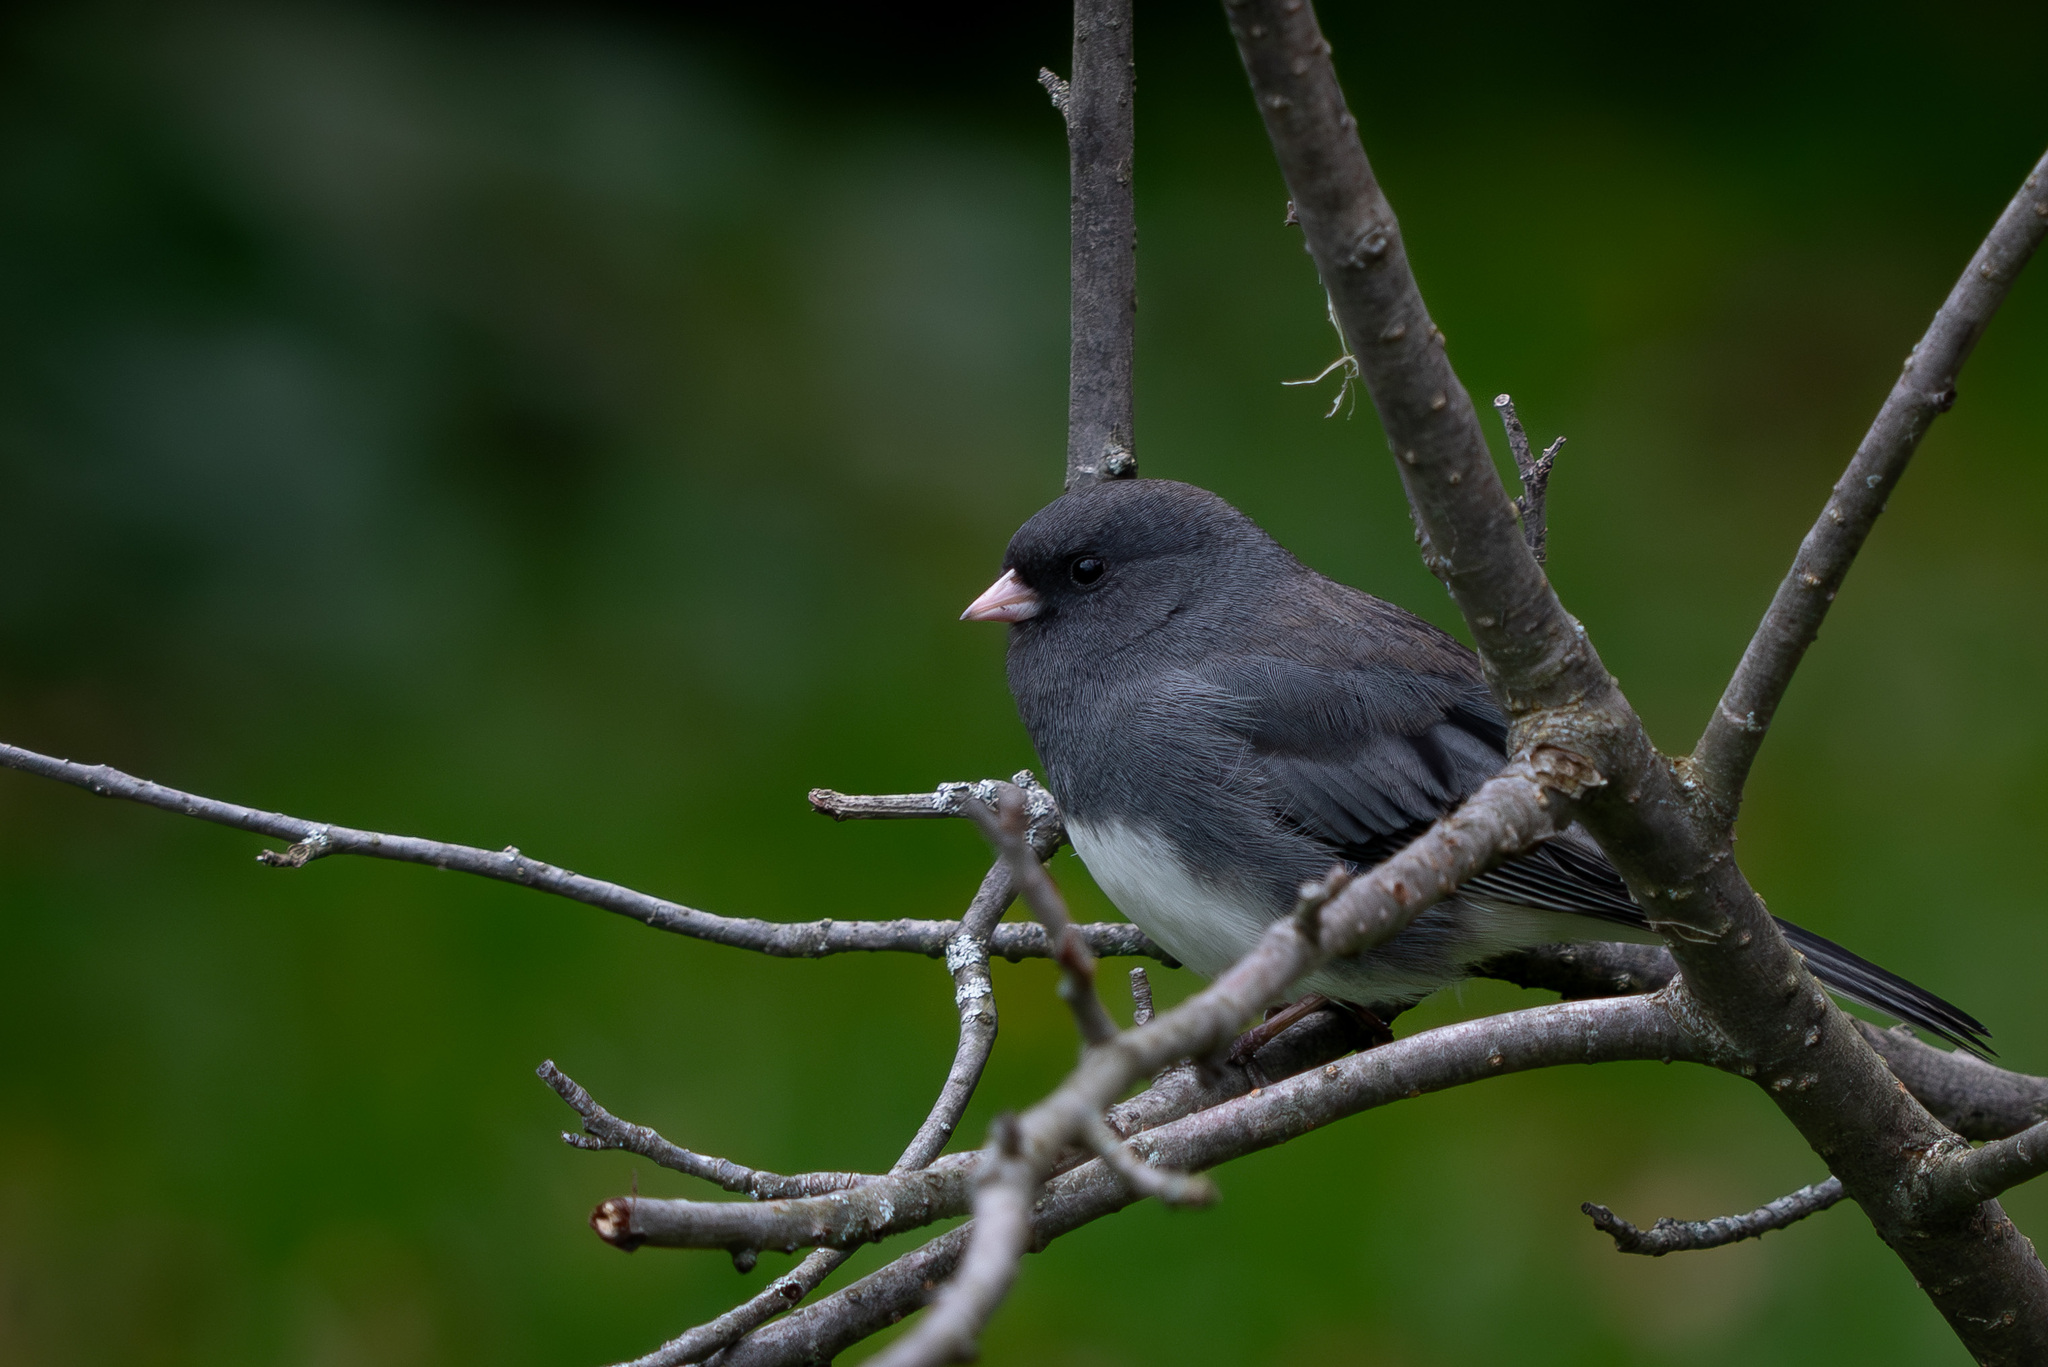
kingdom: Animalia
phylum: Chordata
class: Aves
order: Passeriformes
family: Passerellidae
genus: Junco
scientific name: Junco hyemalis
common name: Dark-eyed junco
